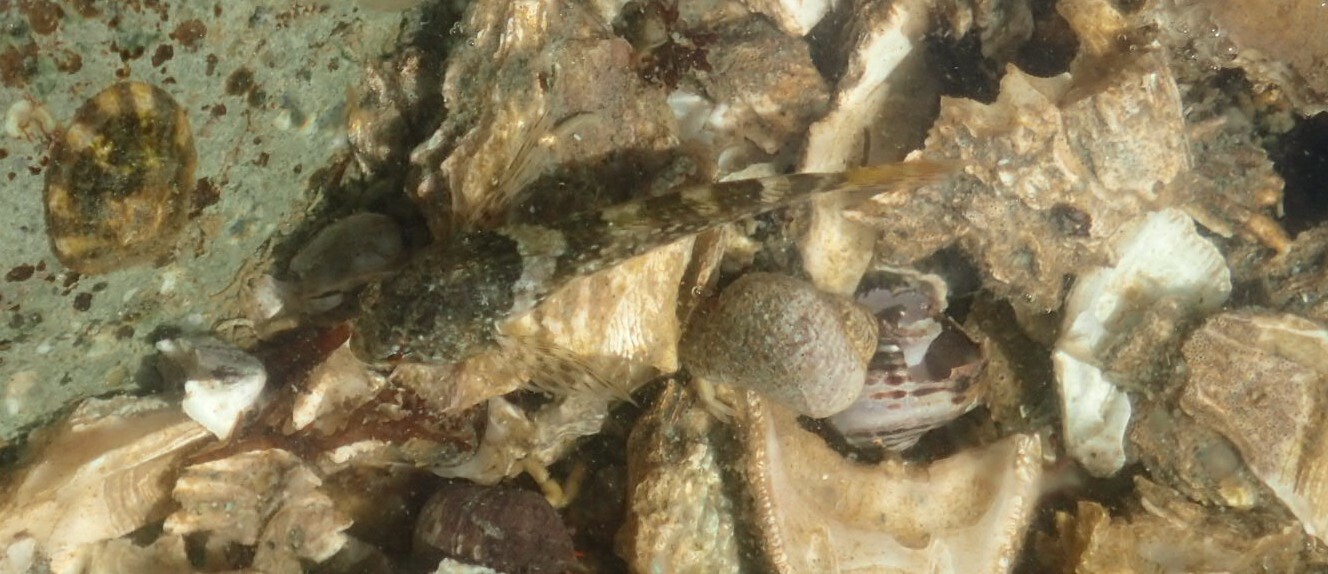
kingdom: Animalia
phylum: Chordata
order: Scorpaeniformes
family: Cottidae
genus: Oligocottus
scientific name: Oligocottus maculosus
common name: Tidepool sculpin
